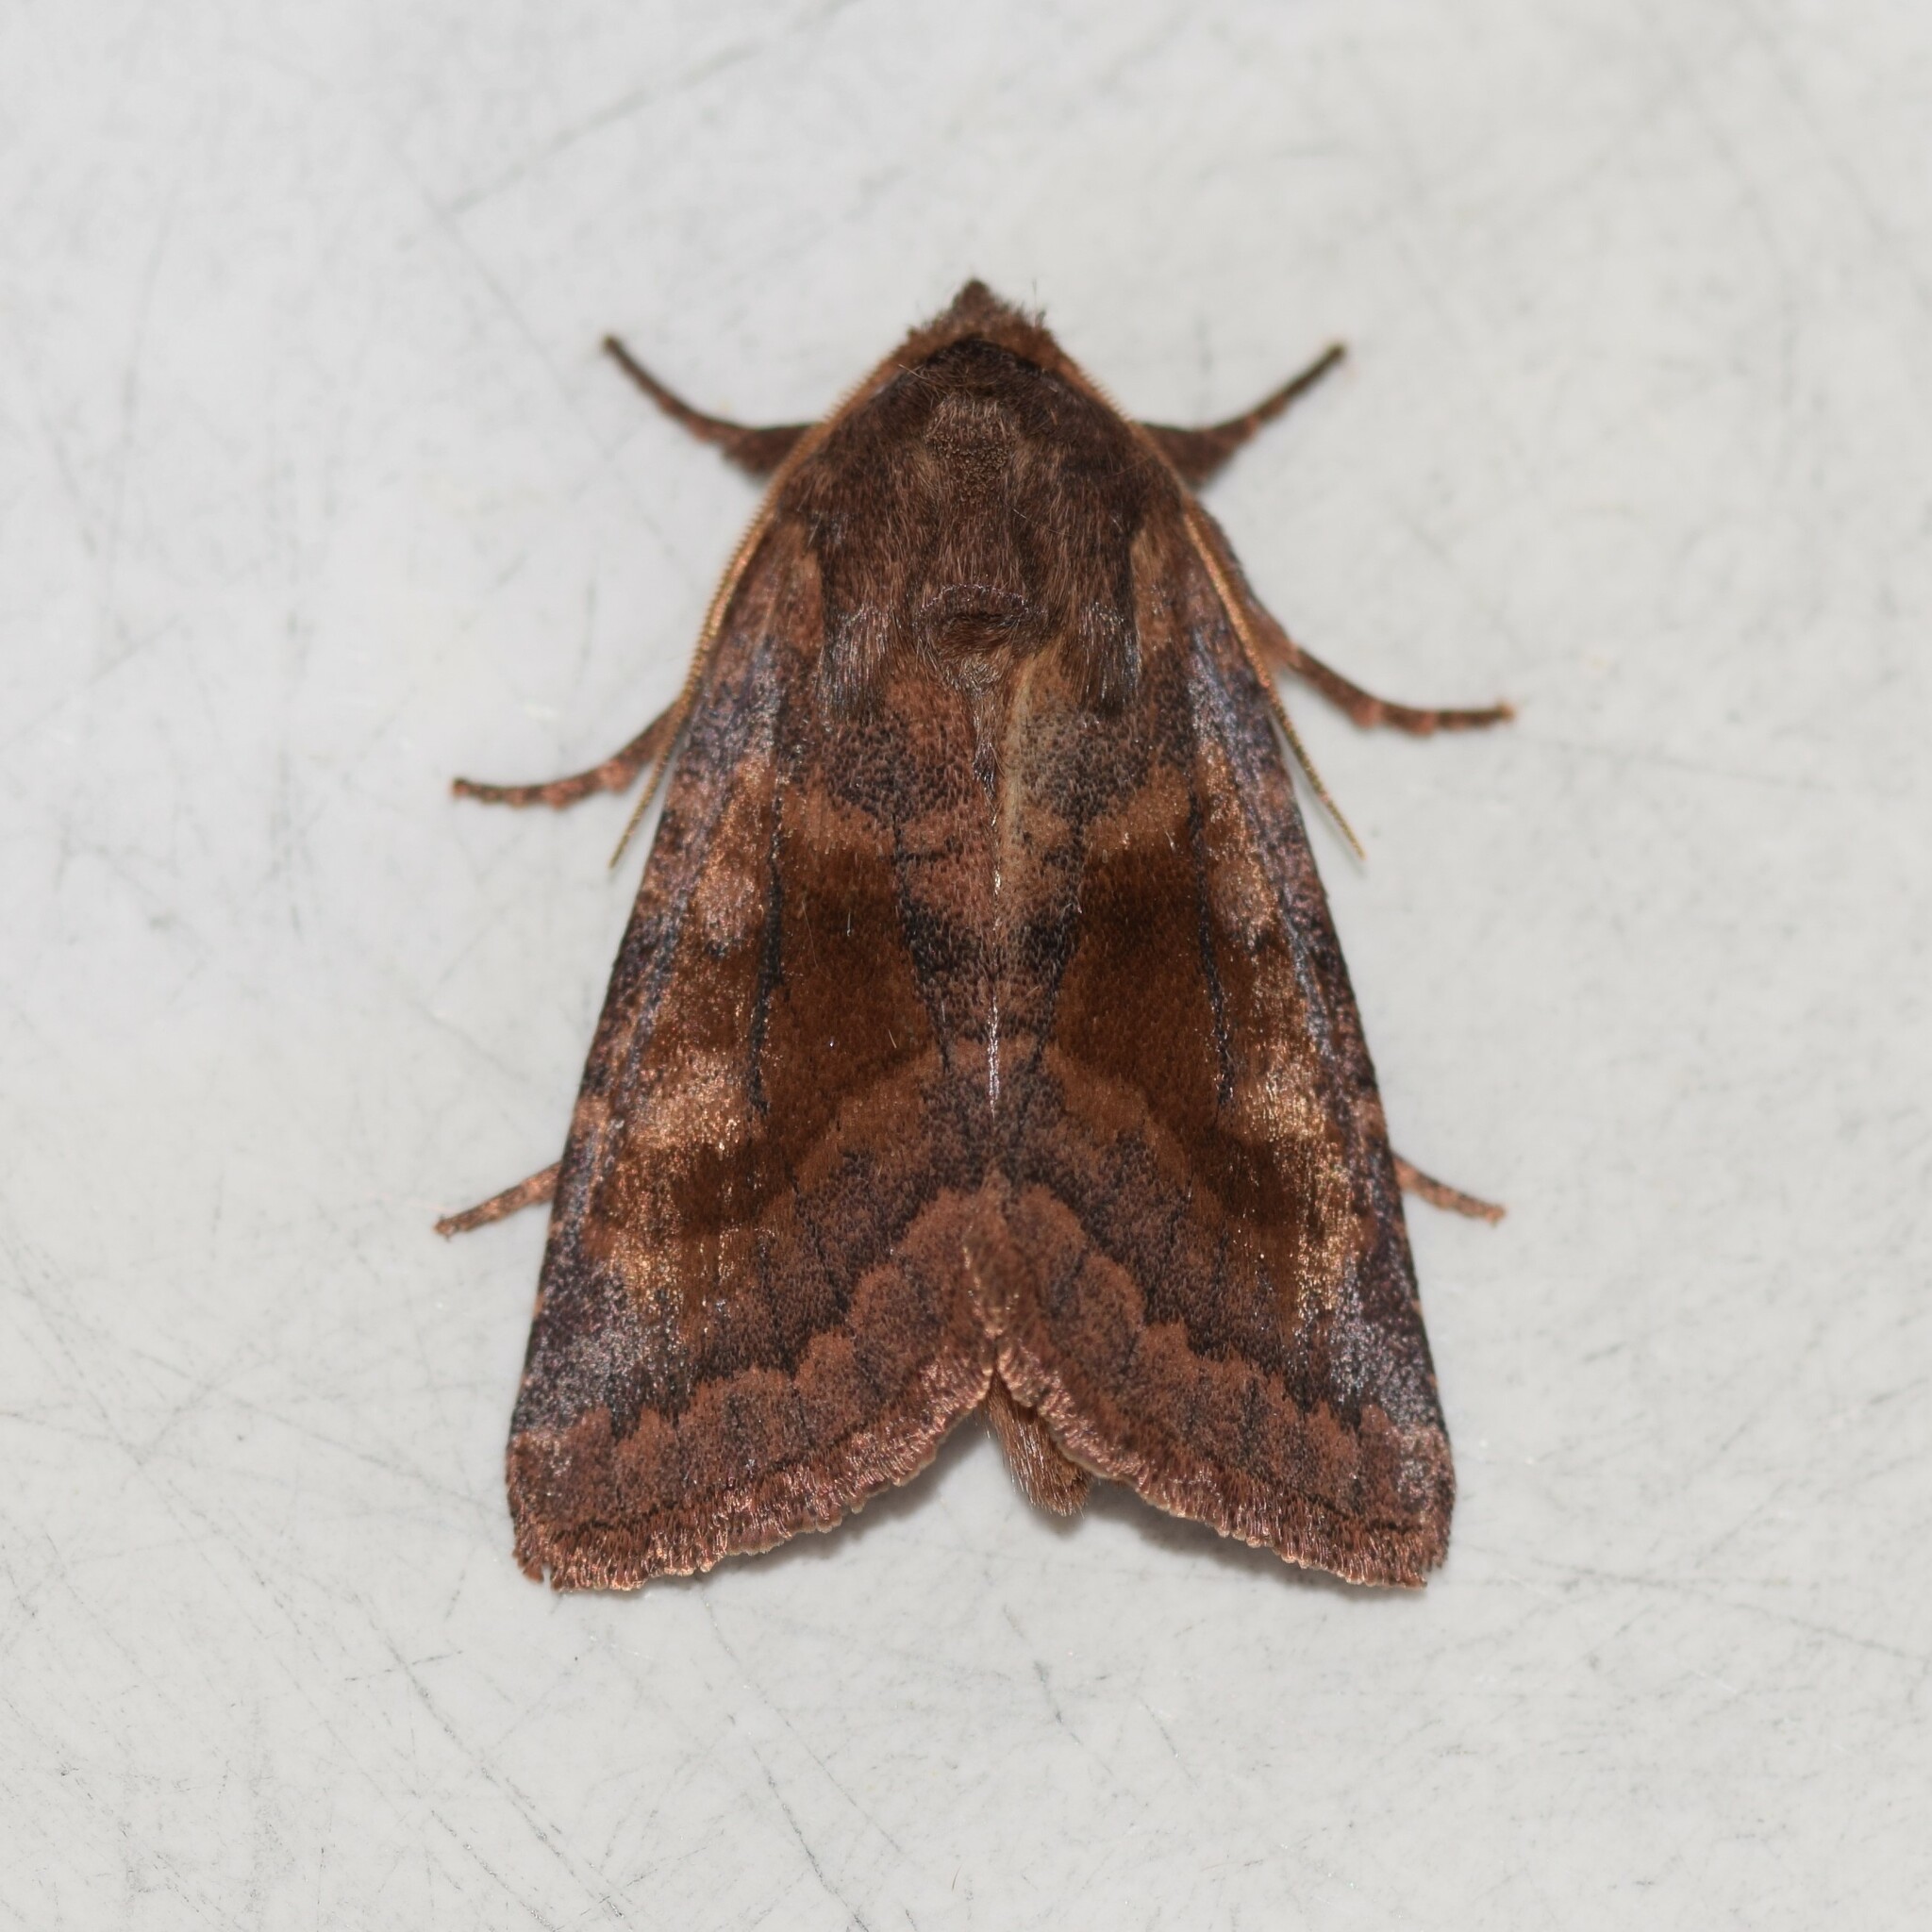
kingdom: Animalia
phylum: Arthropoda
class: Insecta
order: Lepidoptera
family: Noctuidae
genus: Nephelodes
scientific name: Nephelodes minians
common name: Bronzed cutworm
